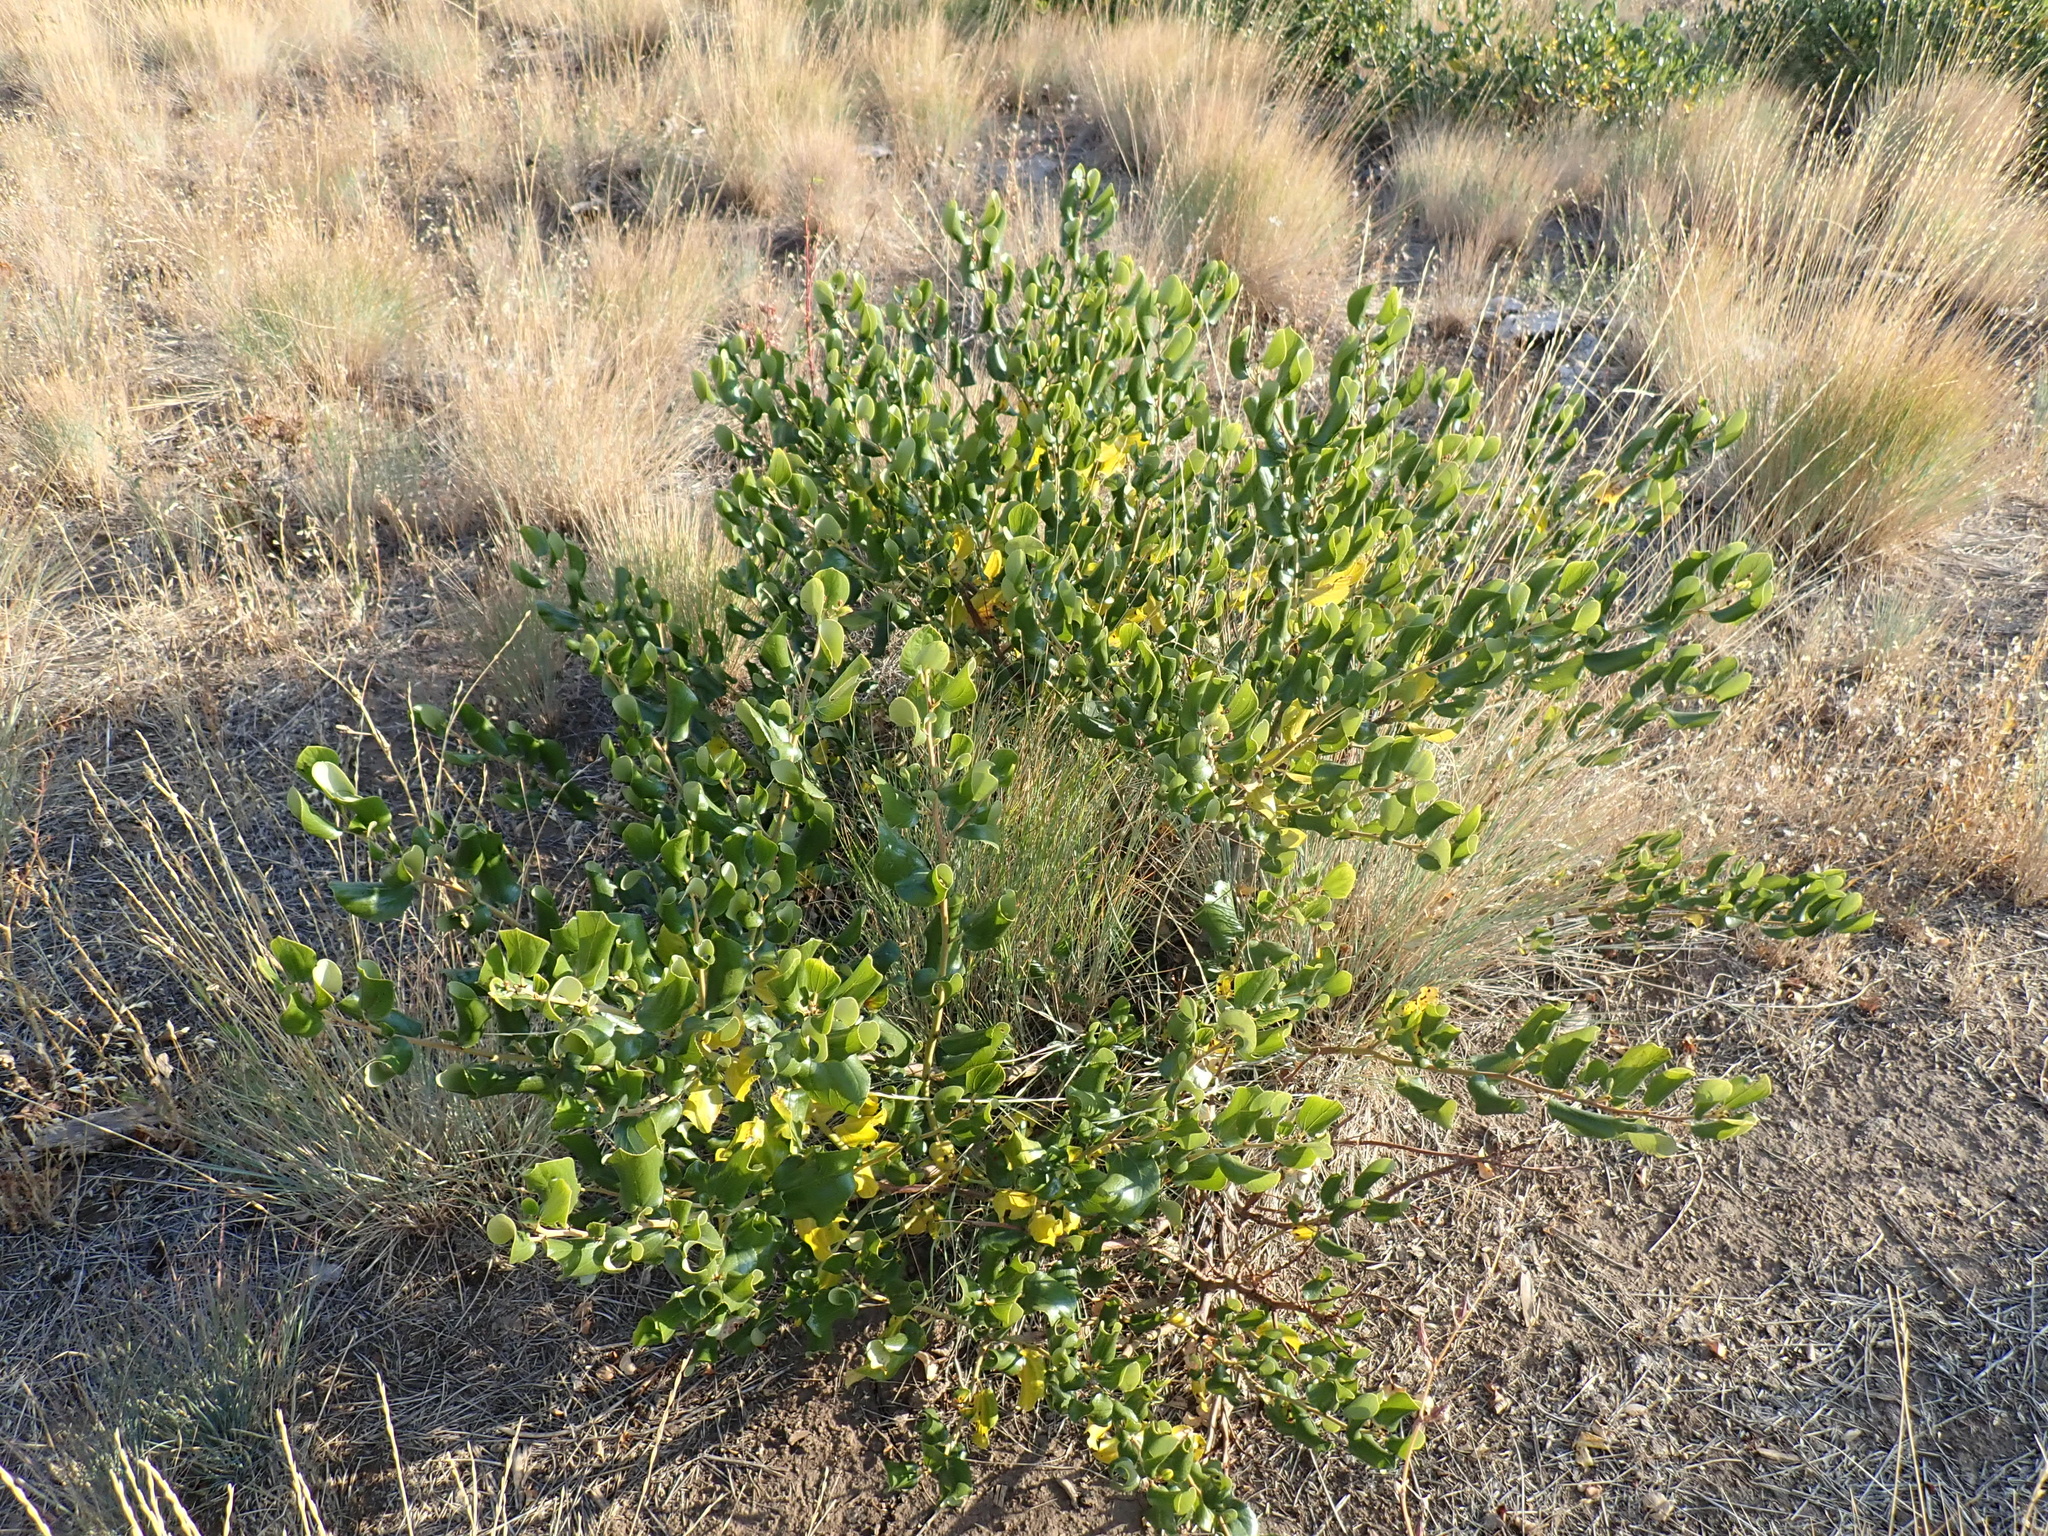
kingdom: Plantae
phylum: Tracheophyta
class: Magnoliopsida
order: Rosales
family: Rhamnaceae
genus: Ceanothus
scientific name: Ceanothus velutinus
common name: Snowbrush
